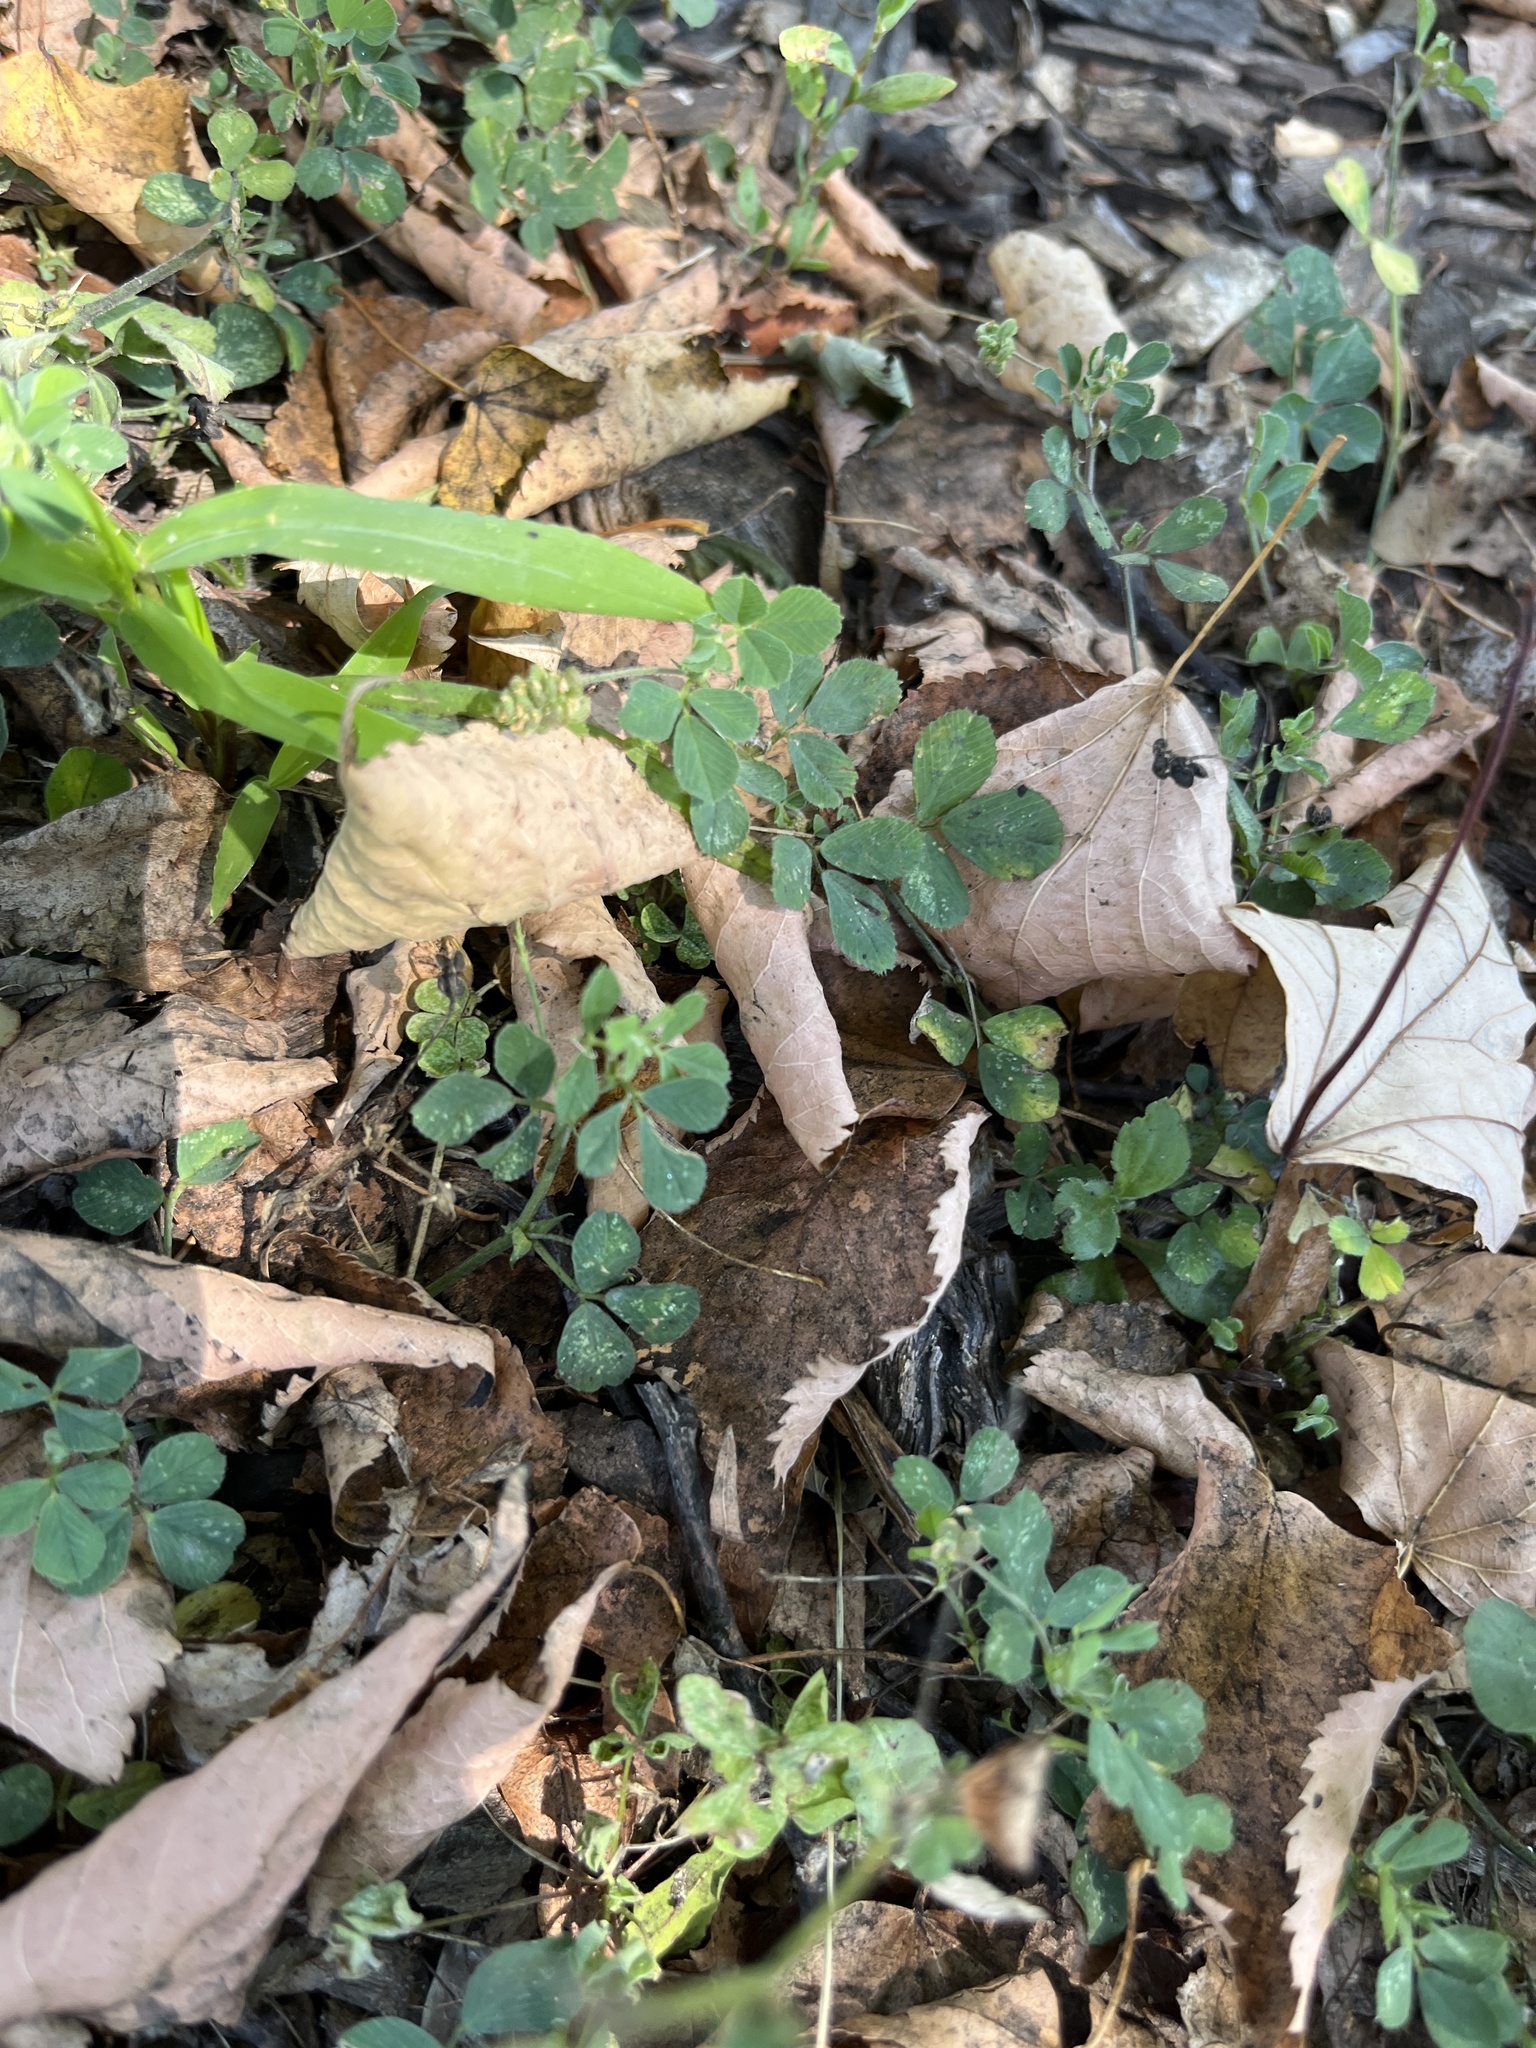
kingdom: Plantae
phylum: Tracheophyta
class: Magnoliopsida
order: Fabales
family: Fabaceae
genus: Medicago
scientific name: Medicago lupulina
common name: Black medick
